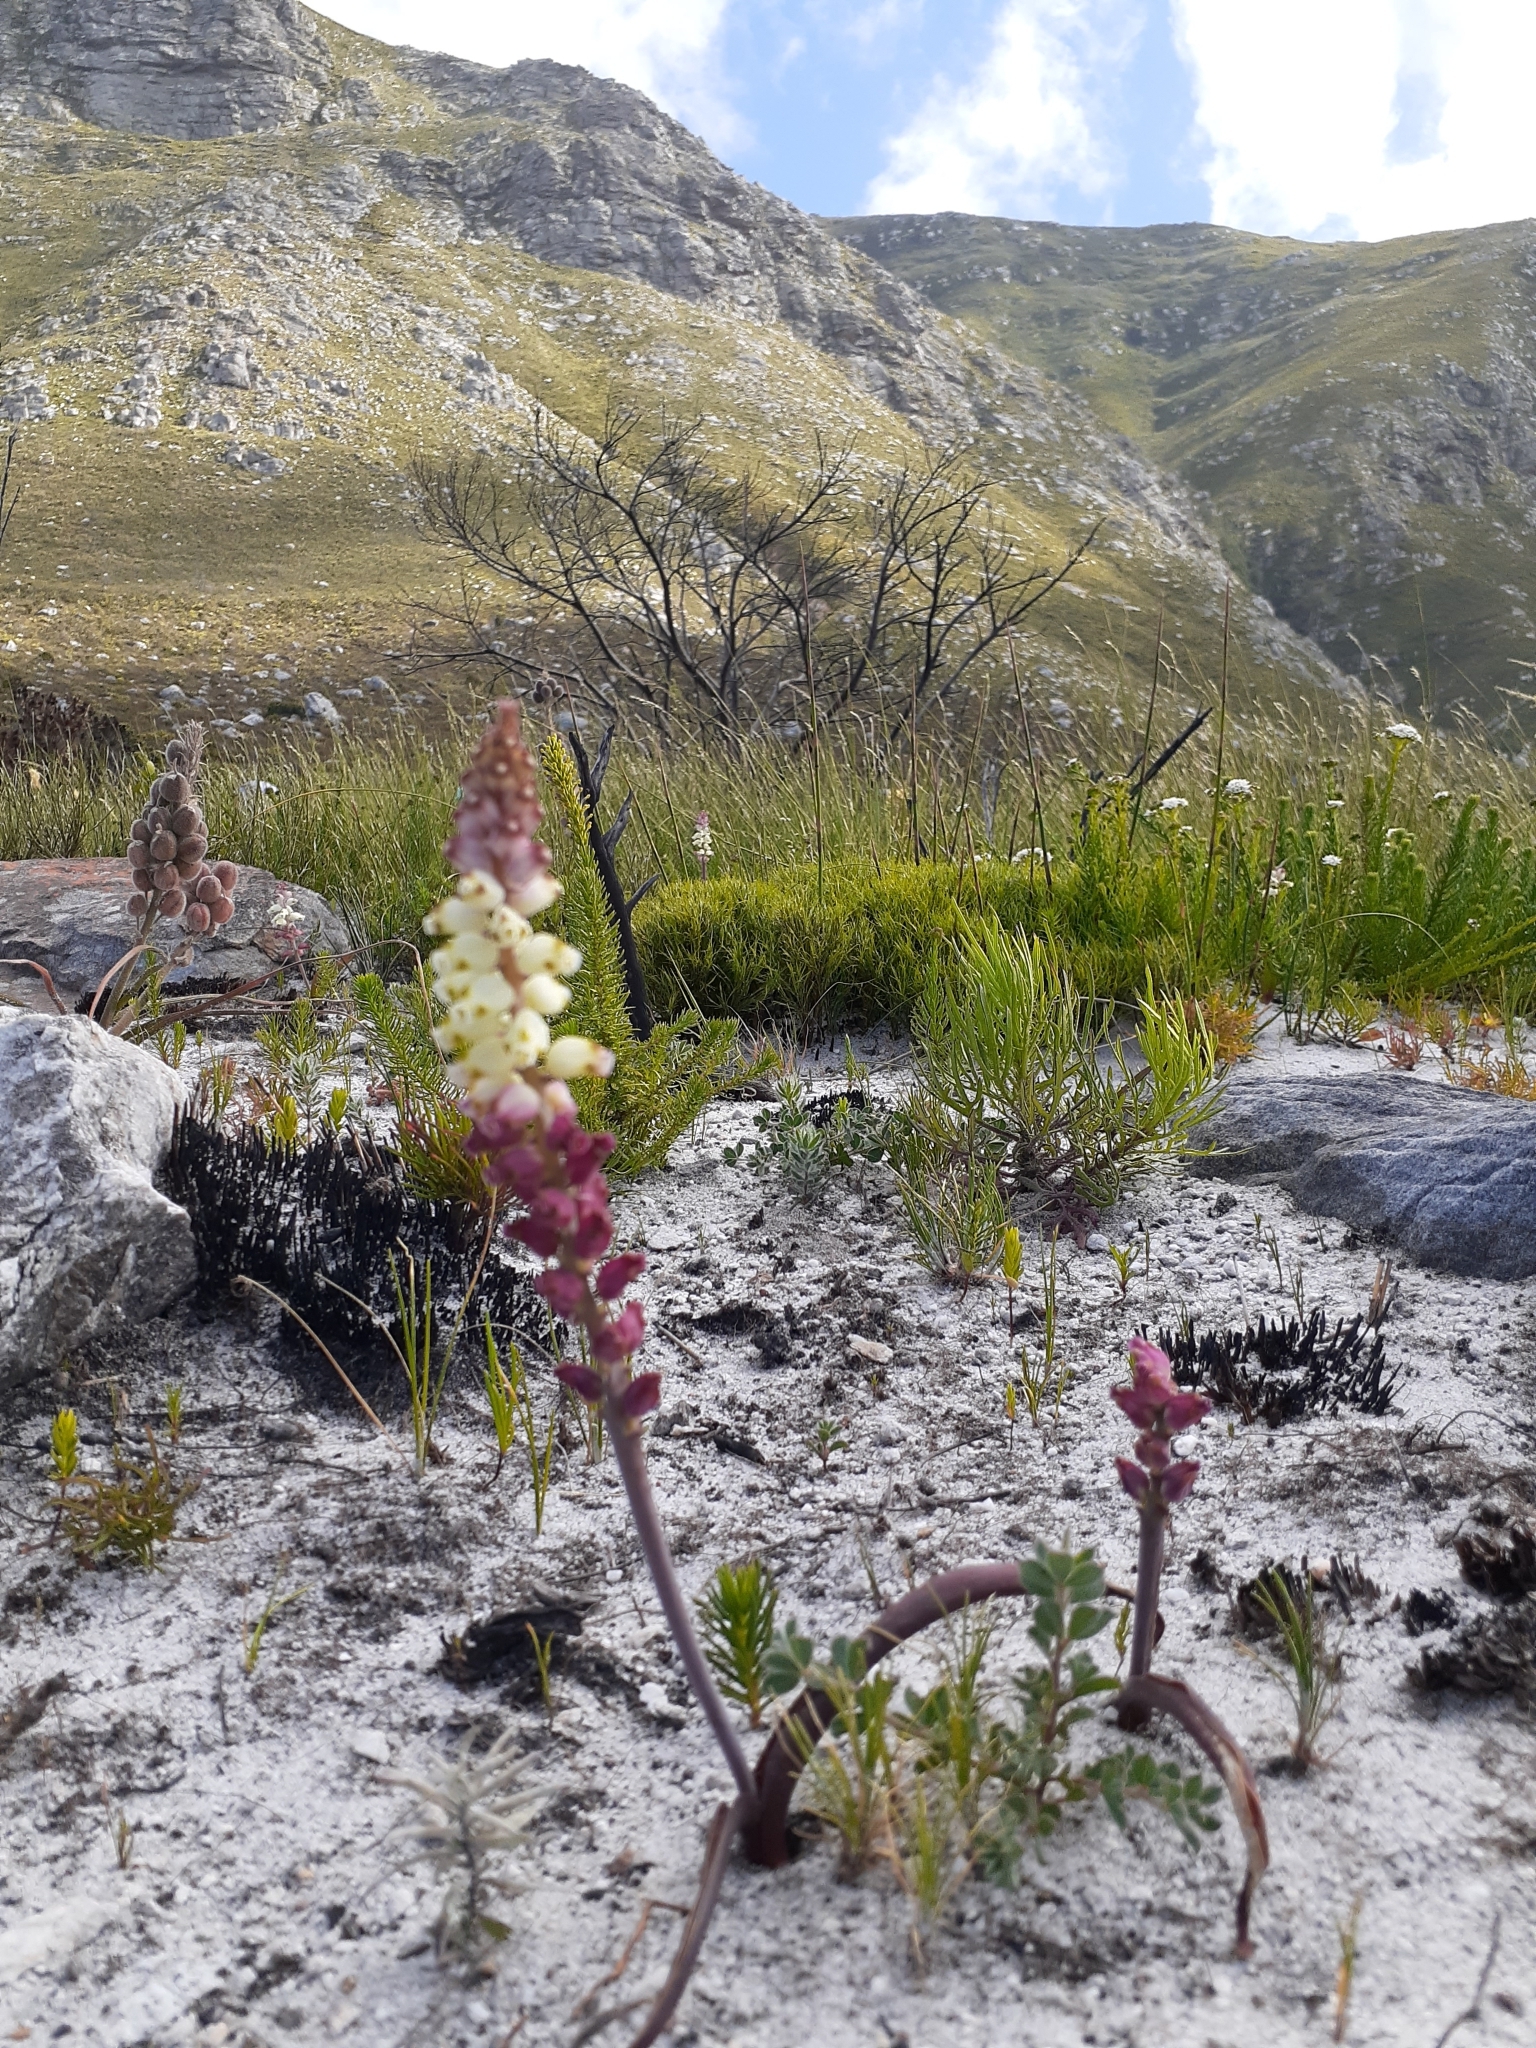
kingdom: Plantae
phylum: Tracheophyta
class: Liliopsida
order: Asparagales
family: Asparagaceae
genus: Lachenalia
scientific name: Lachenalia peersii
